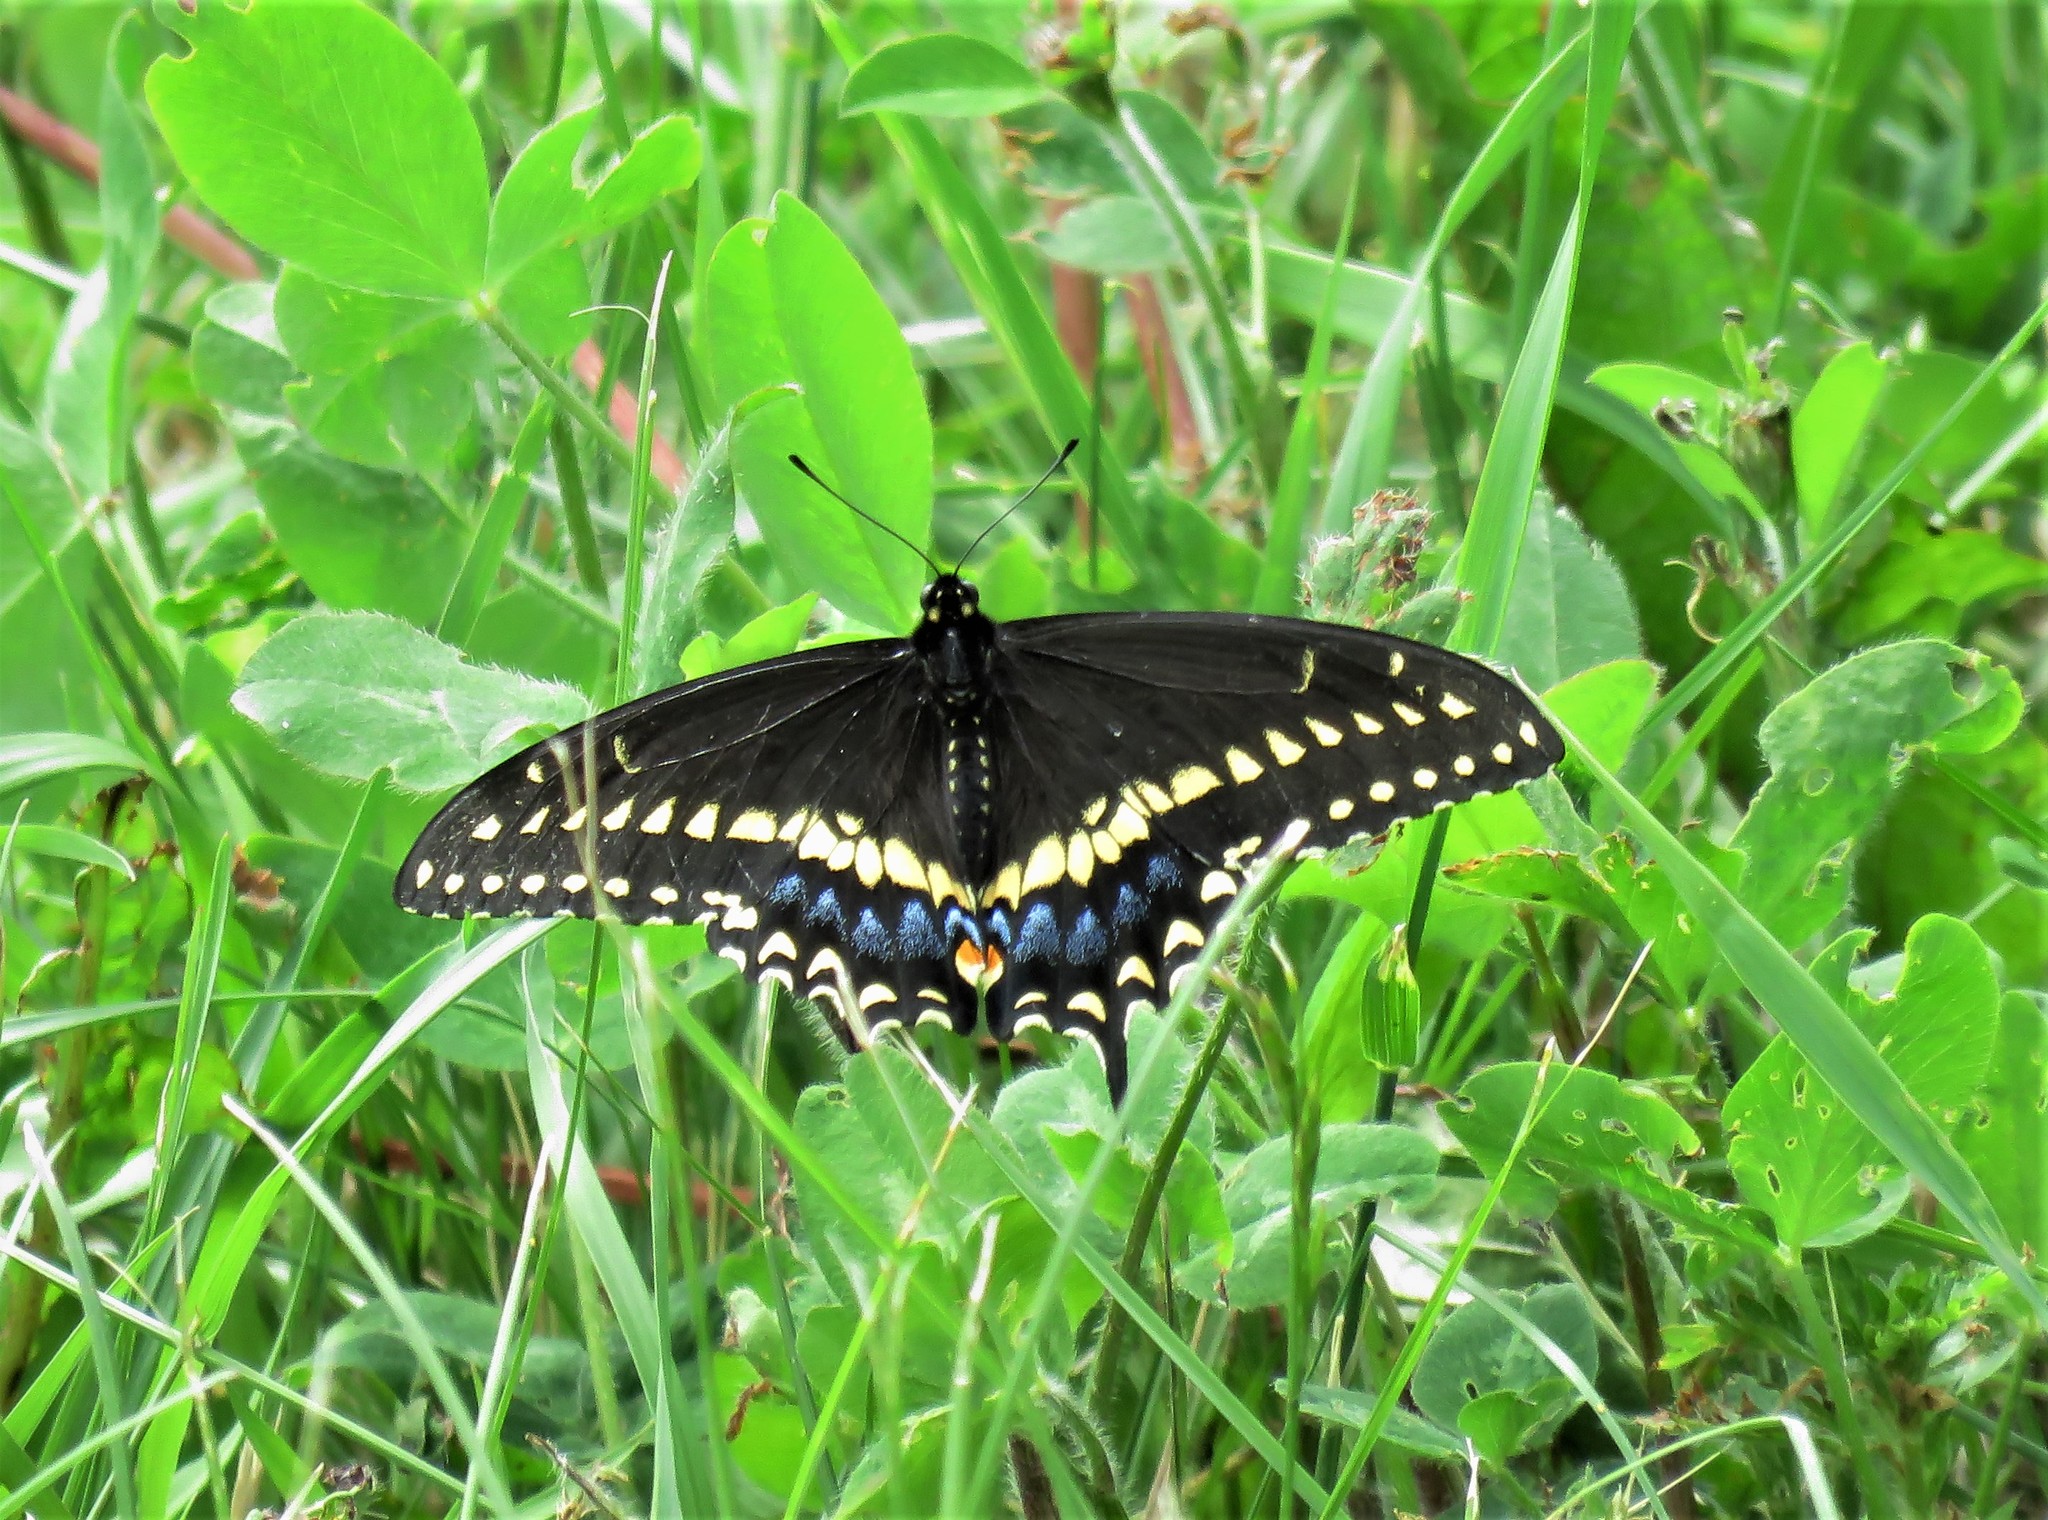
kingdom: Animalia
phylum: Arthropoda
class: Insecta
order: Lepidoptera
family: Papilionidae
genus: Papilio
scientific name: Papilio polyxenes
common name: Black swallowtail
